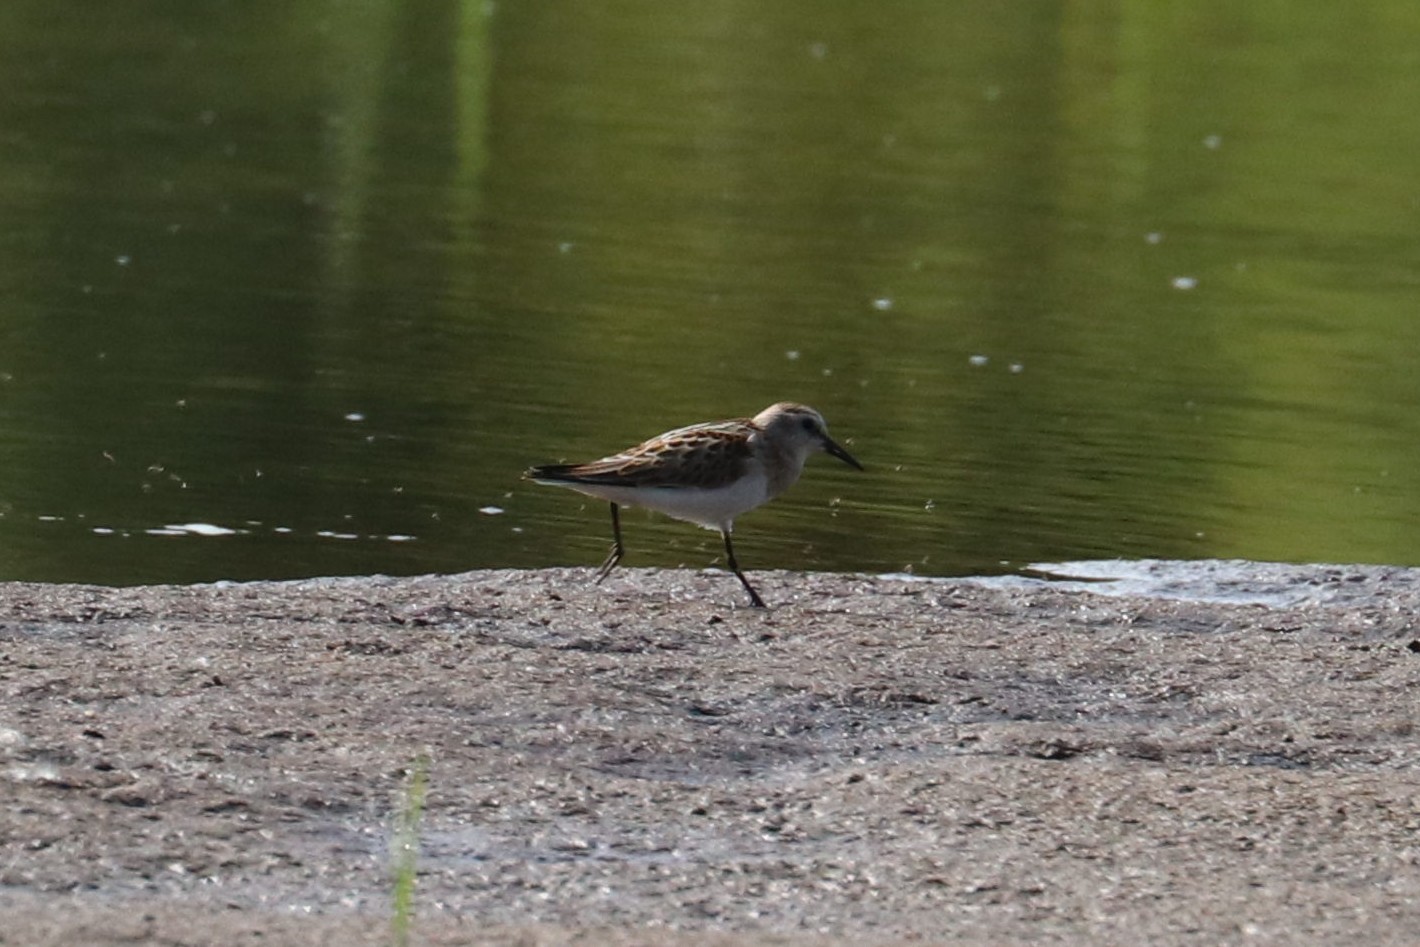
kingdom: Animalia
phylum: Chordata
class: Aves
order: Charadriiformes
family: Scolopacidae
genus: Calidris
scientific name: Calidris minuta
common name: Little stint
